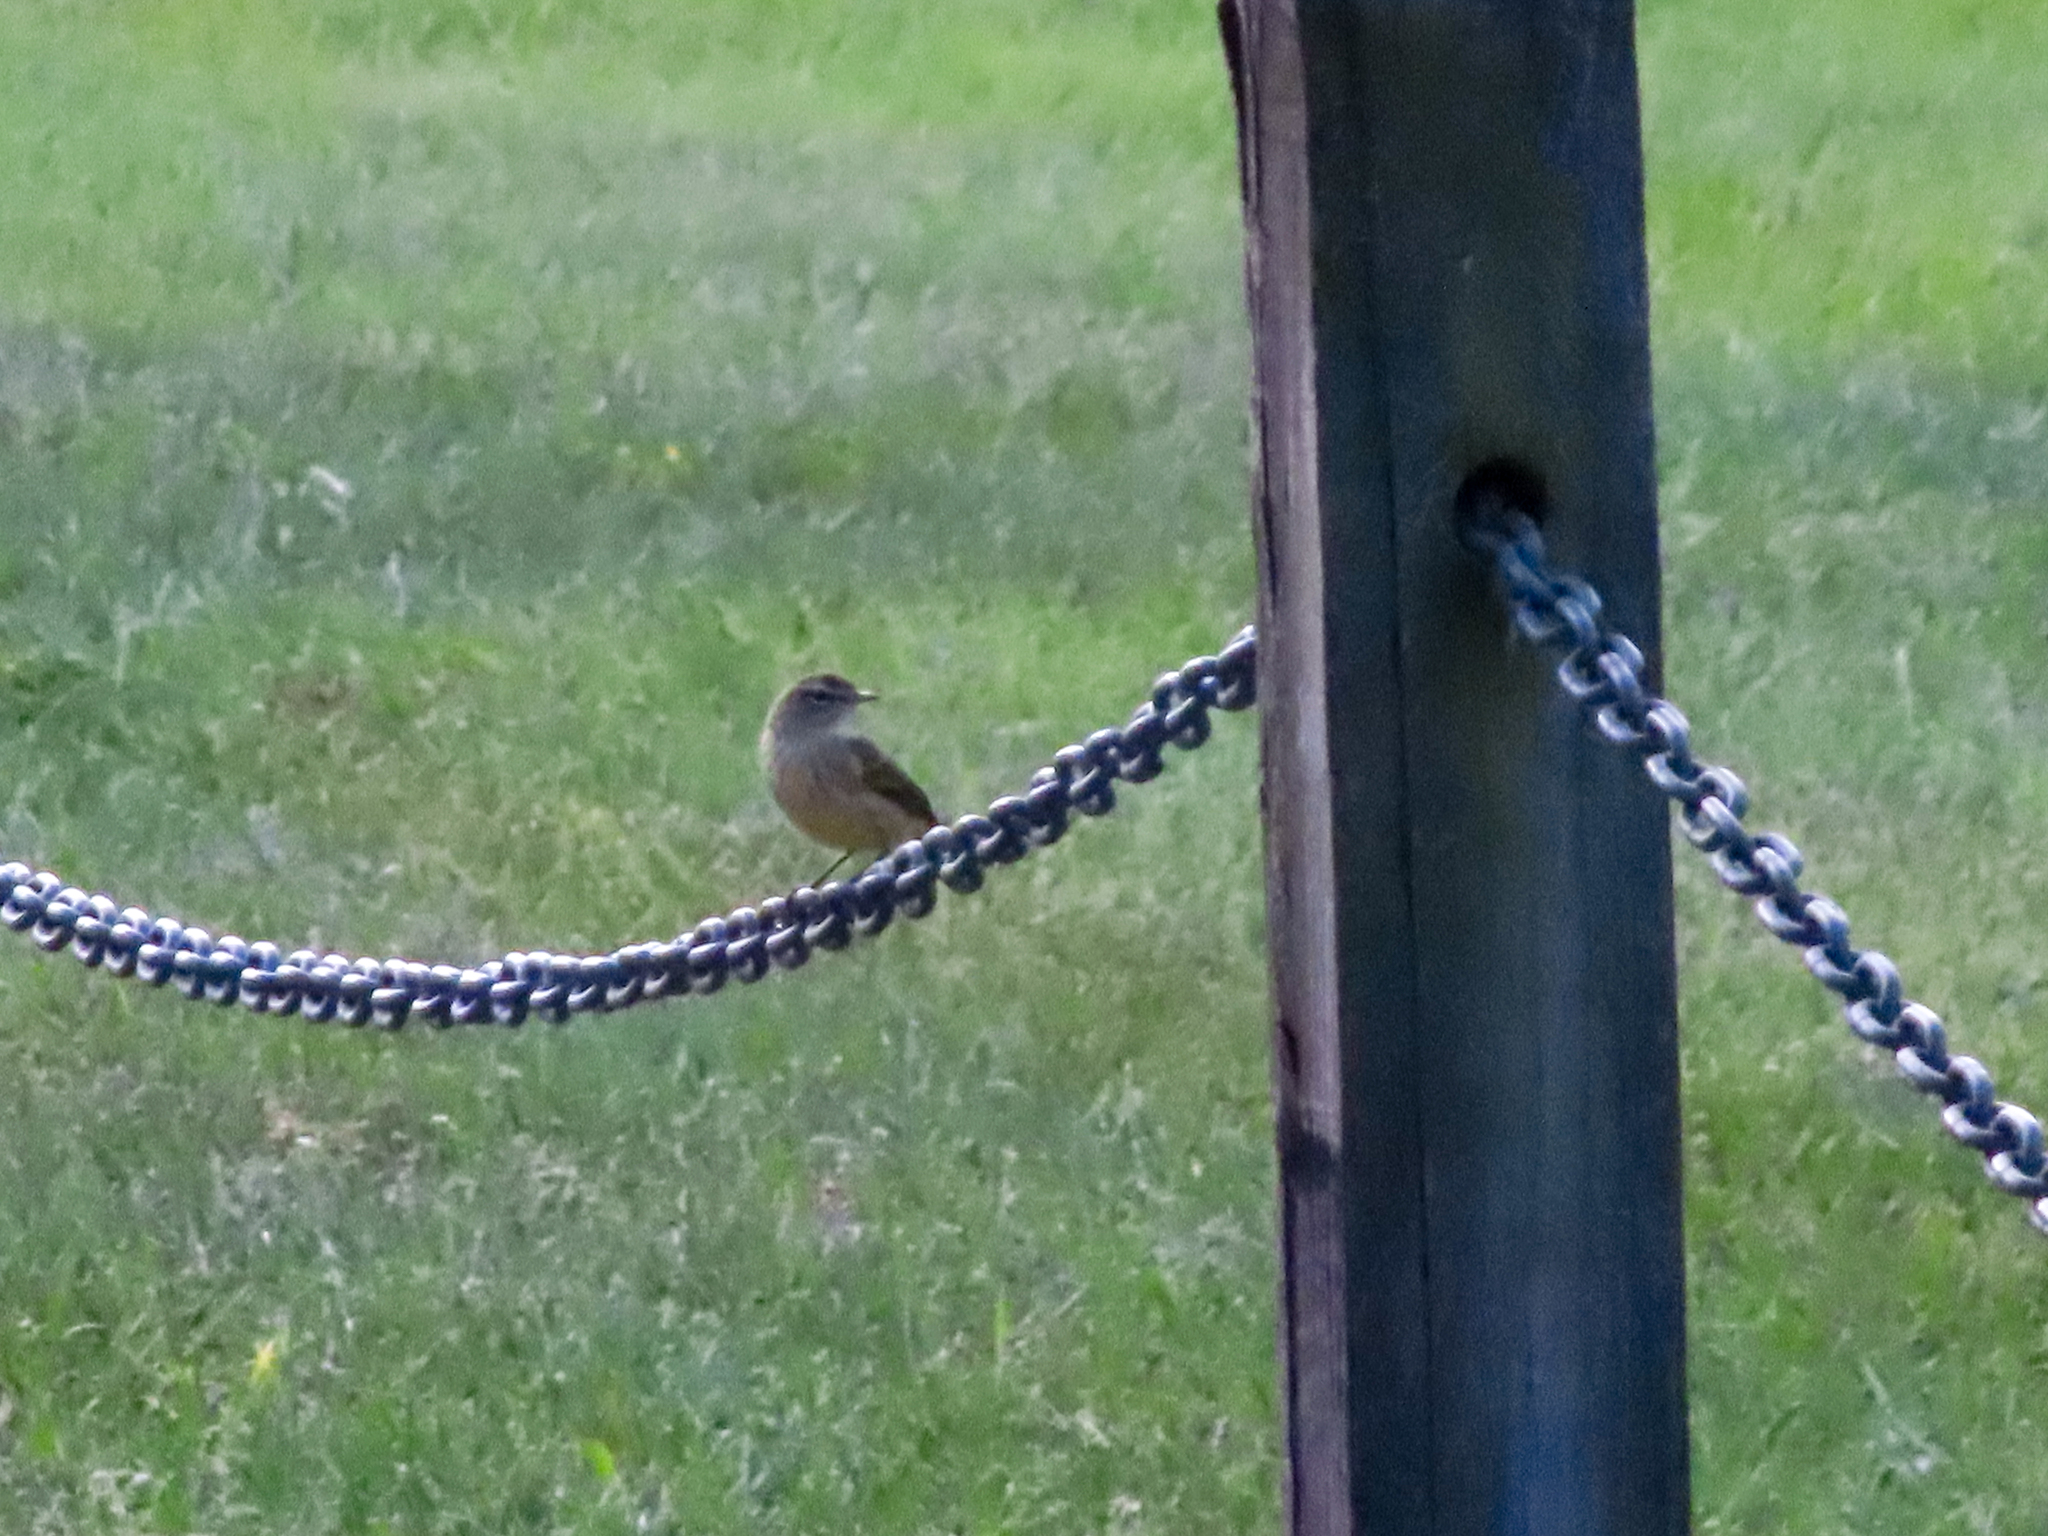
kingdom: Animalia
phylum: Chordata
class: Aves
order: Passeriformes
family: Parulidae
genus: Setophaga
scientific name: Setophaga palmarum
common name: Palm warbler
